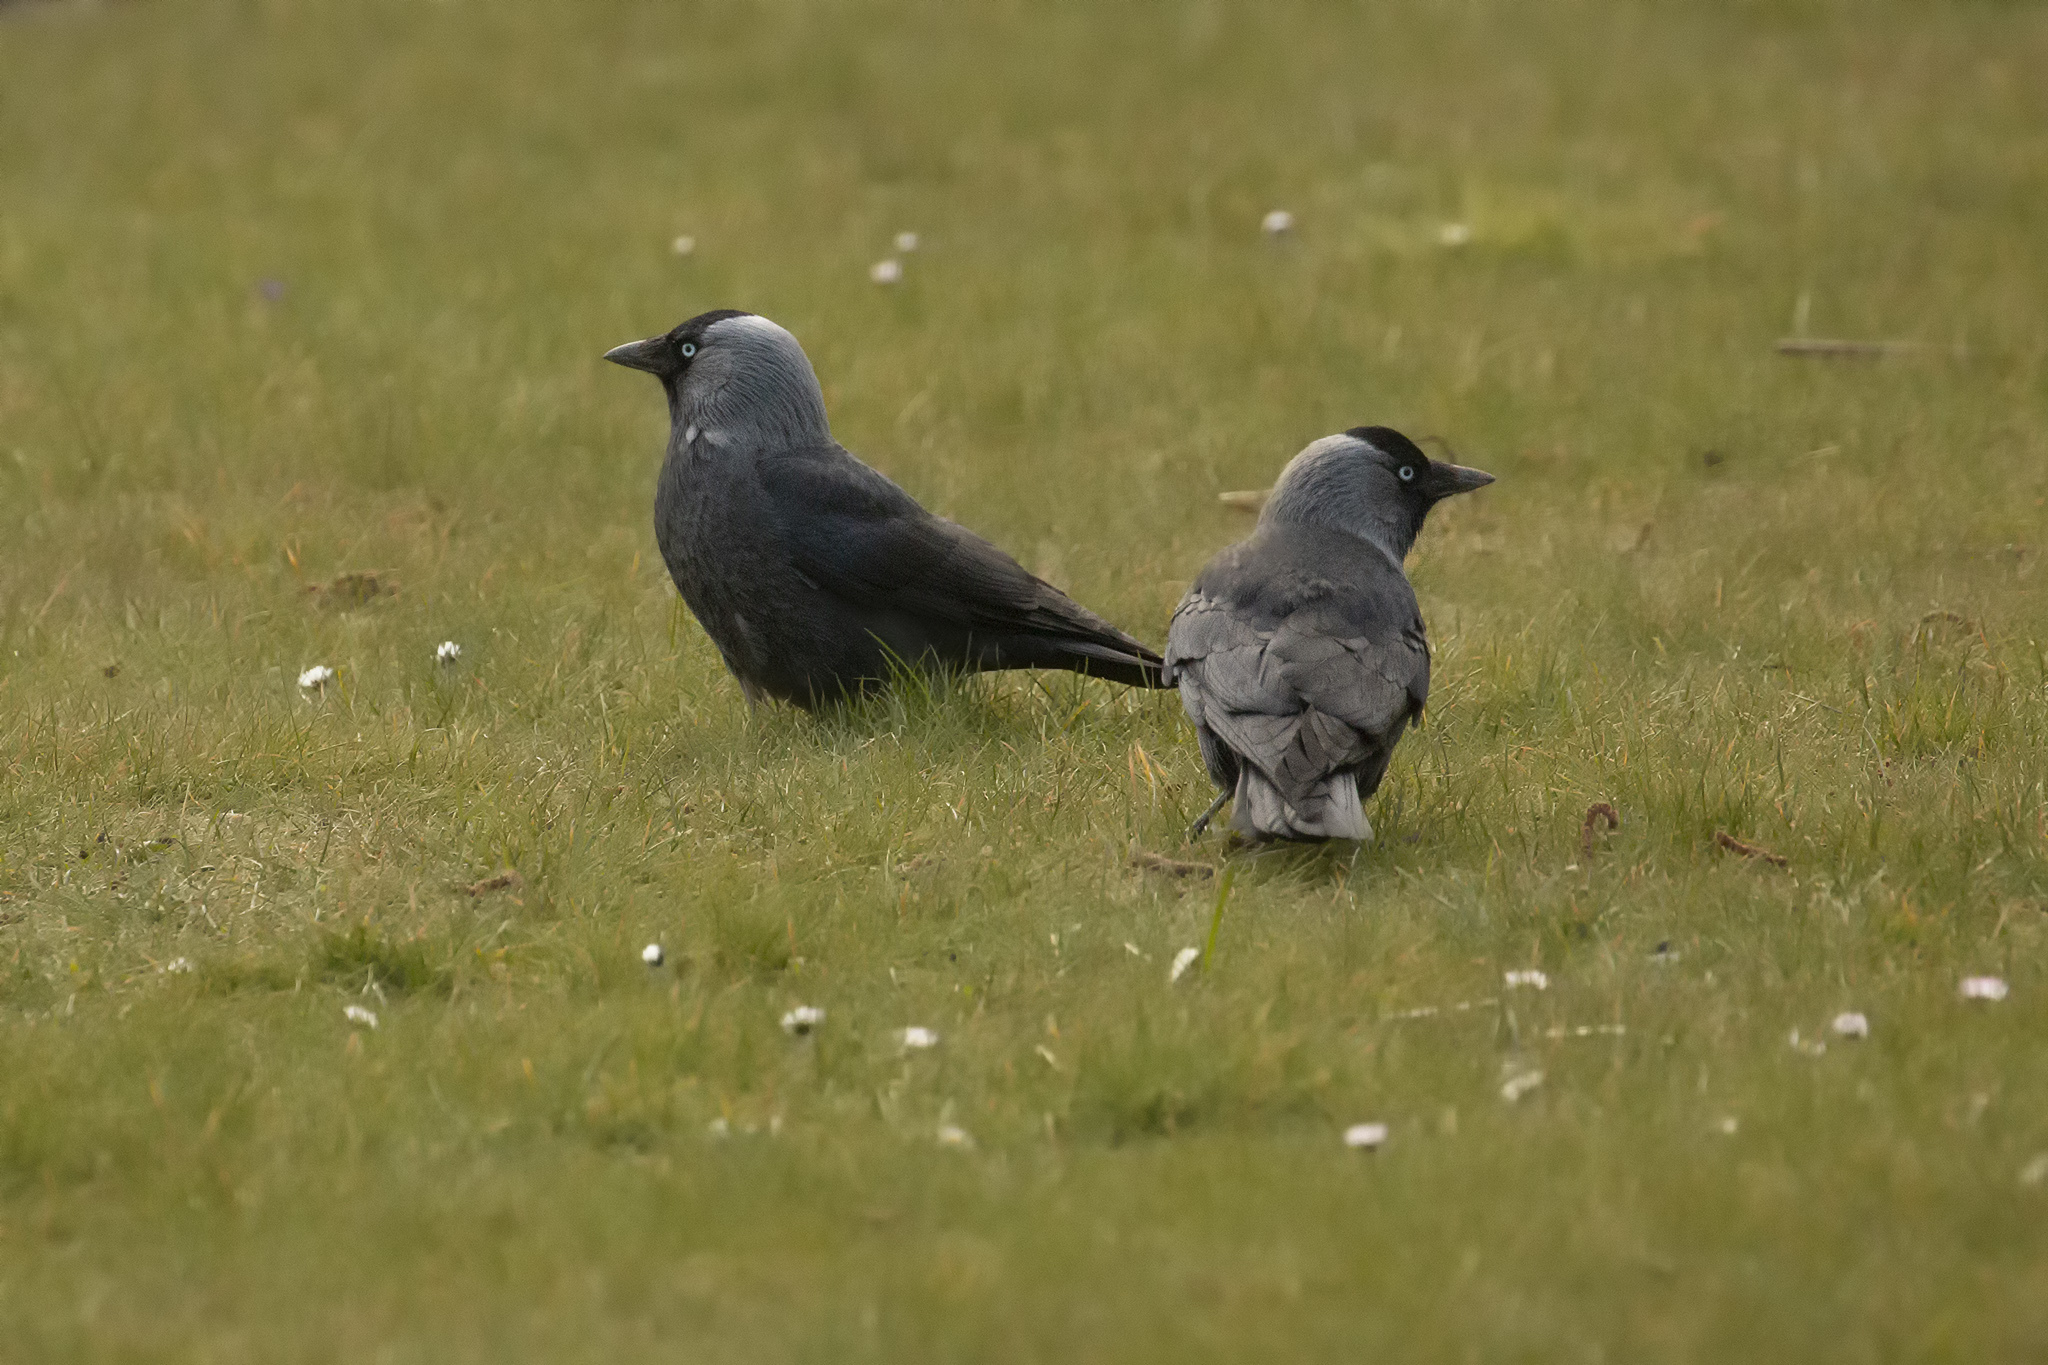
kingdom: Animalia
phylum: Chordata
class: Aves
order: Passeriformes
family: Corvidae
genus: Coloeus
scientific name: Coloeus monedula
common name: Western jackdaw
